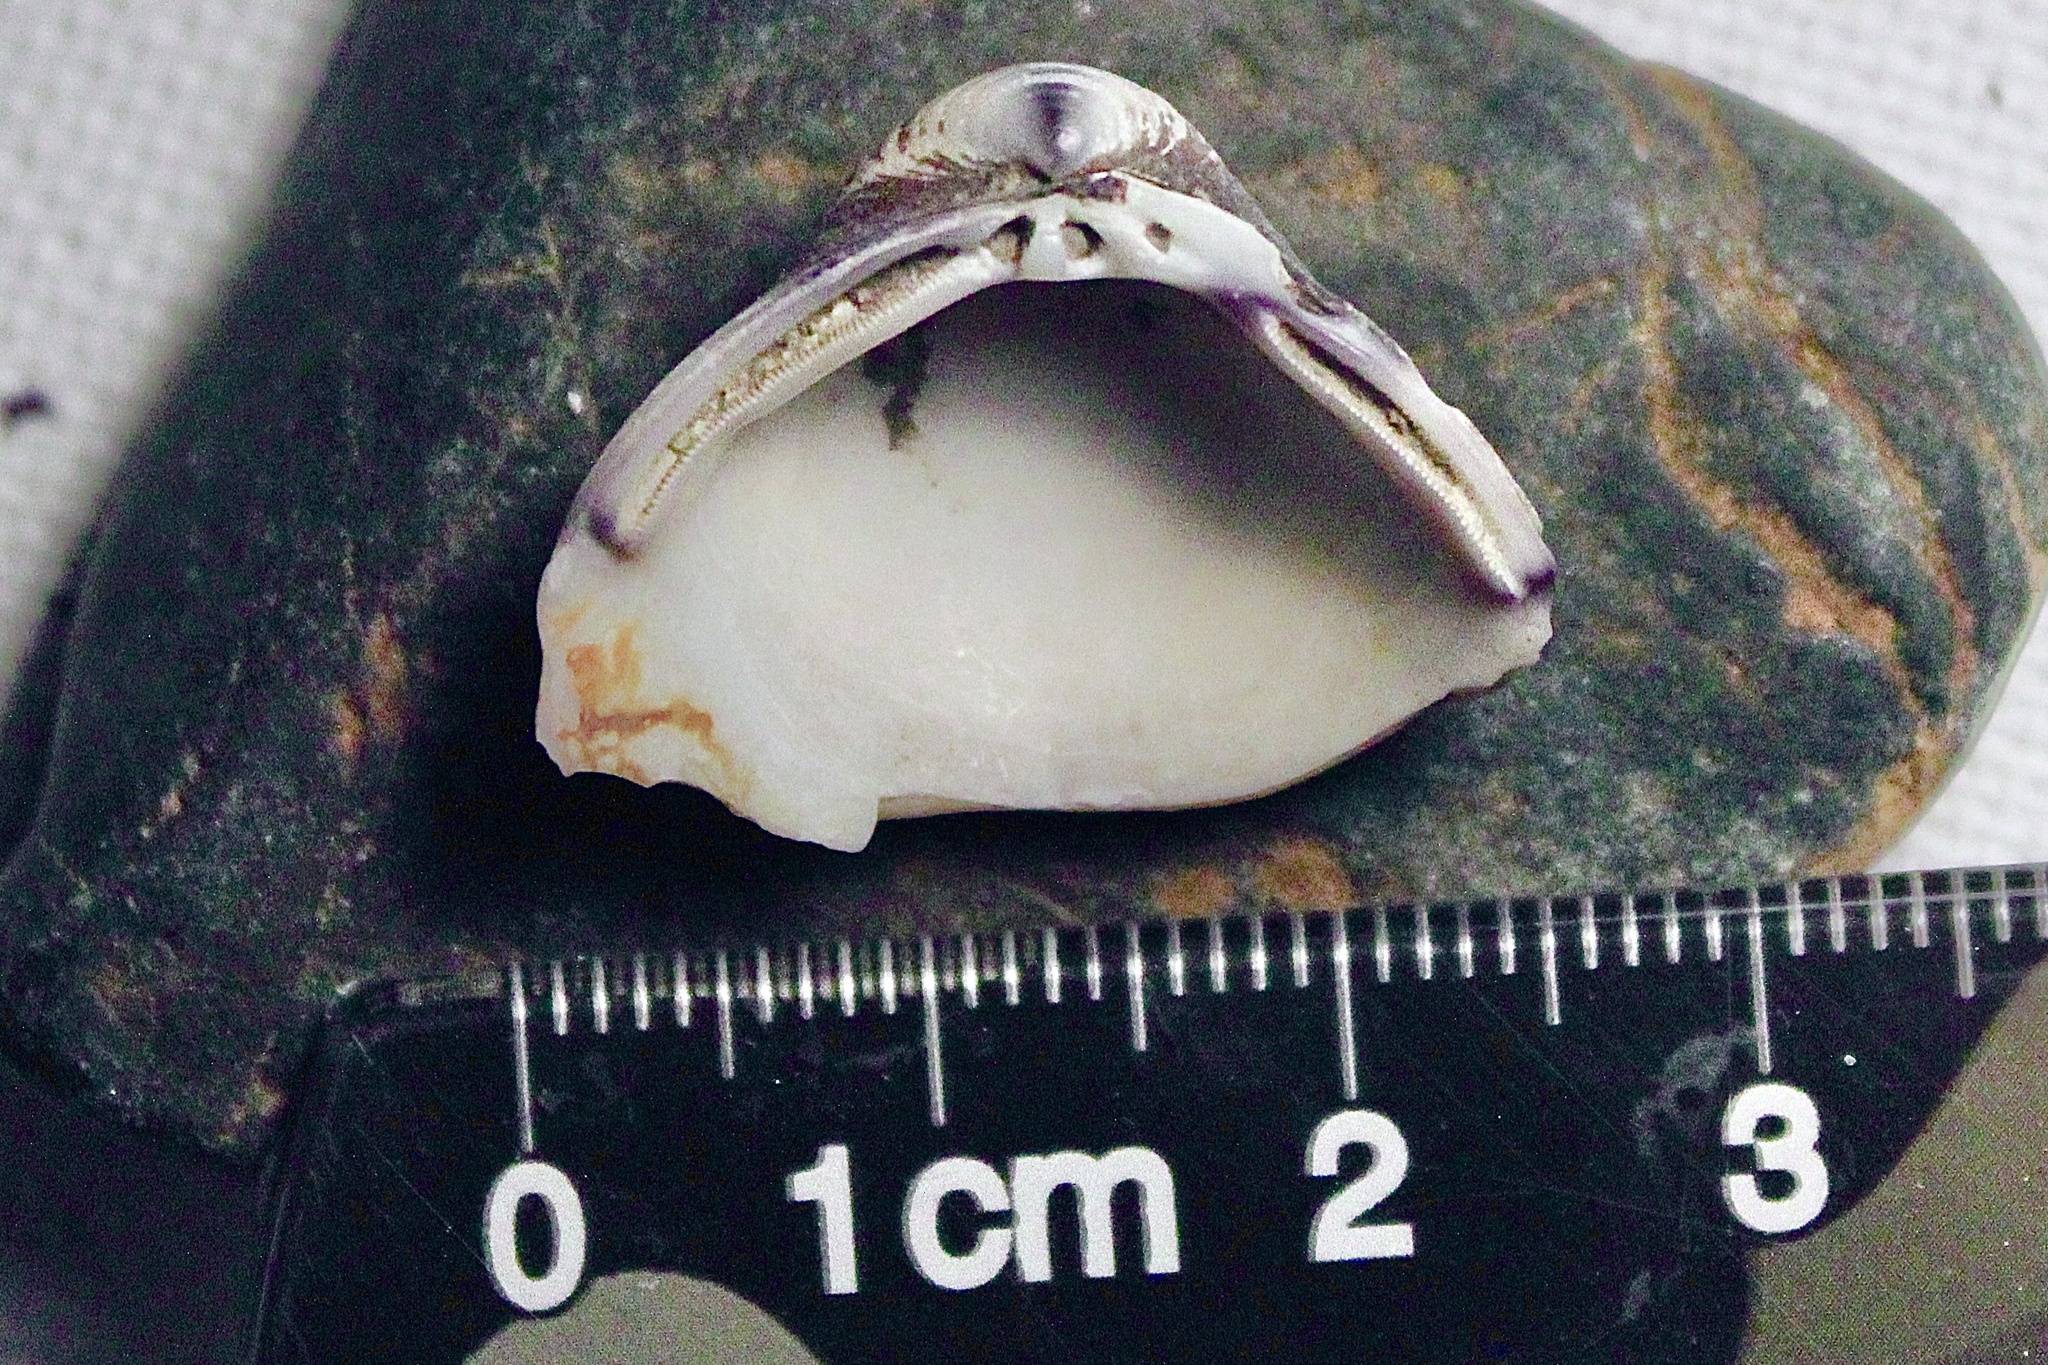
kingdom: Animalia
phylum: Mollusca
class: Bivalvia
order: Venerida
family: Cyrenidae
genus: Corbicula
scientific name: Corbicula
